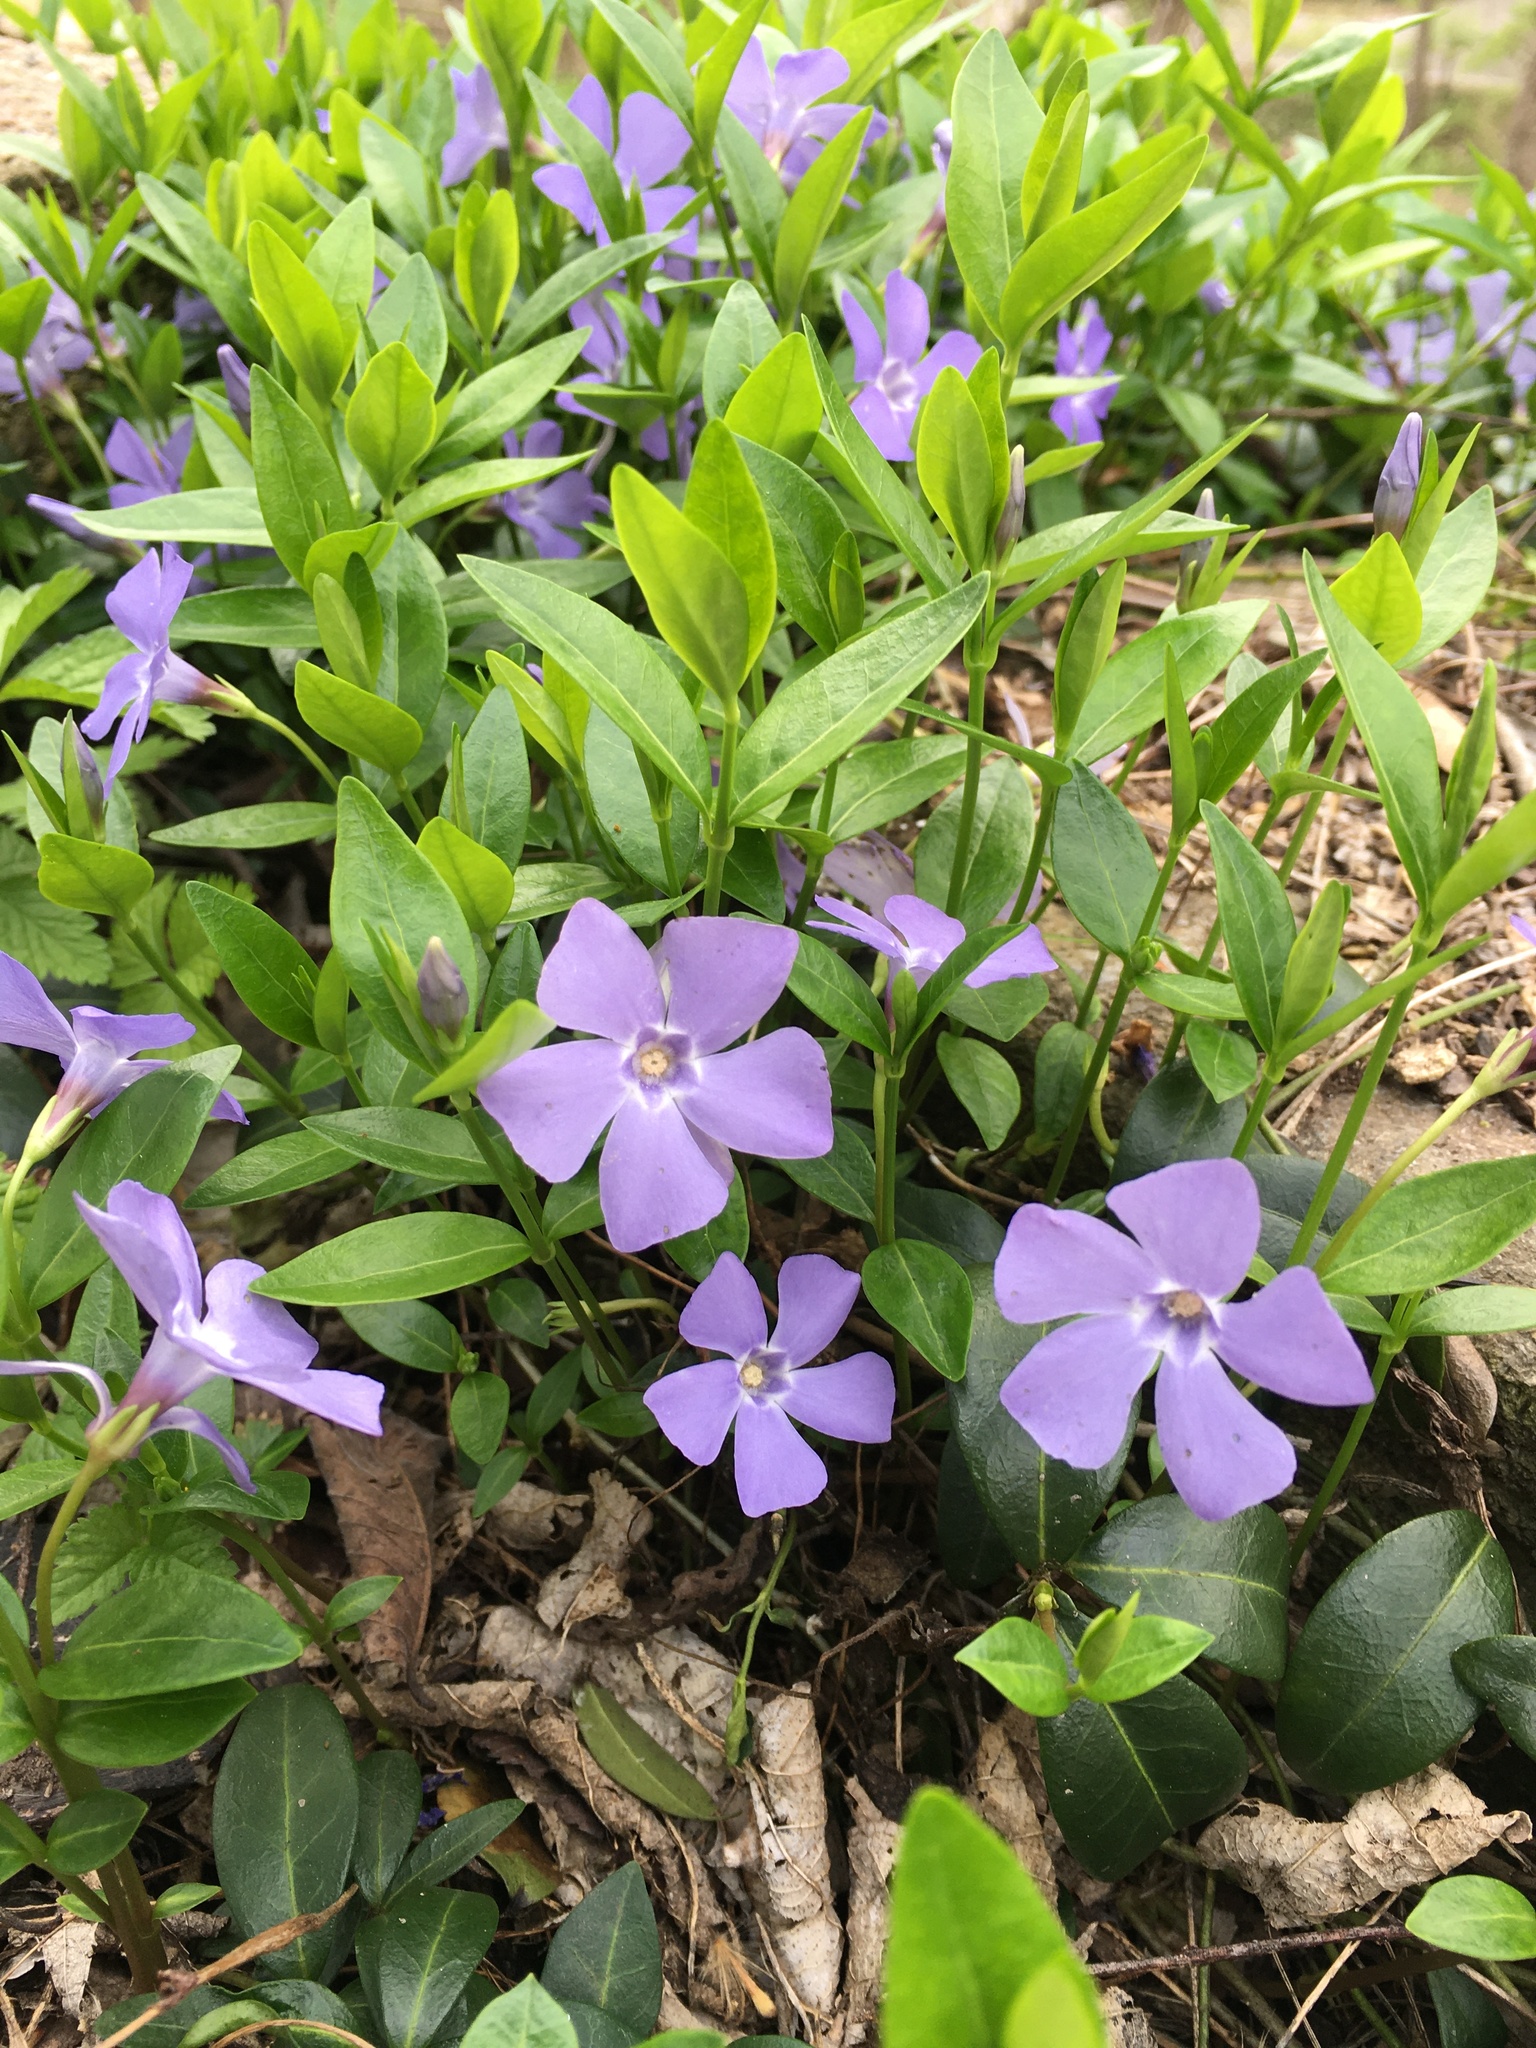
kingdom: Plantae
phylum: Tracheophyta
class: Magnoliopsida
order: Gentianales
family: Apocynaceae
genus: Vinca
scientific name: Vinca minor
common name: Lesser periwinkle
